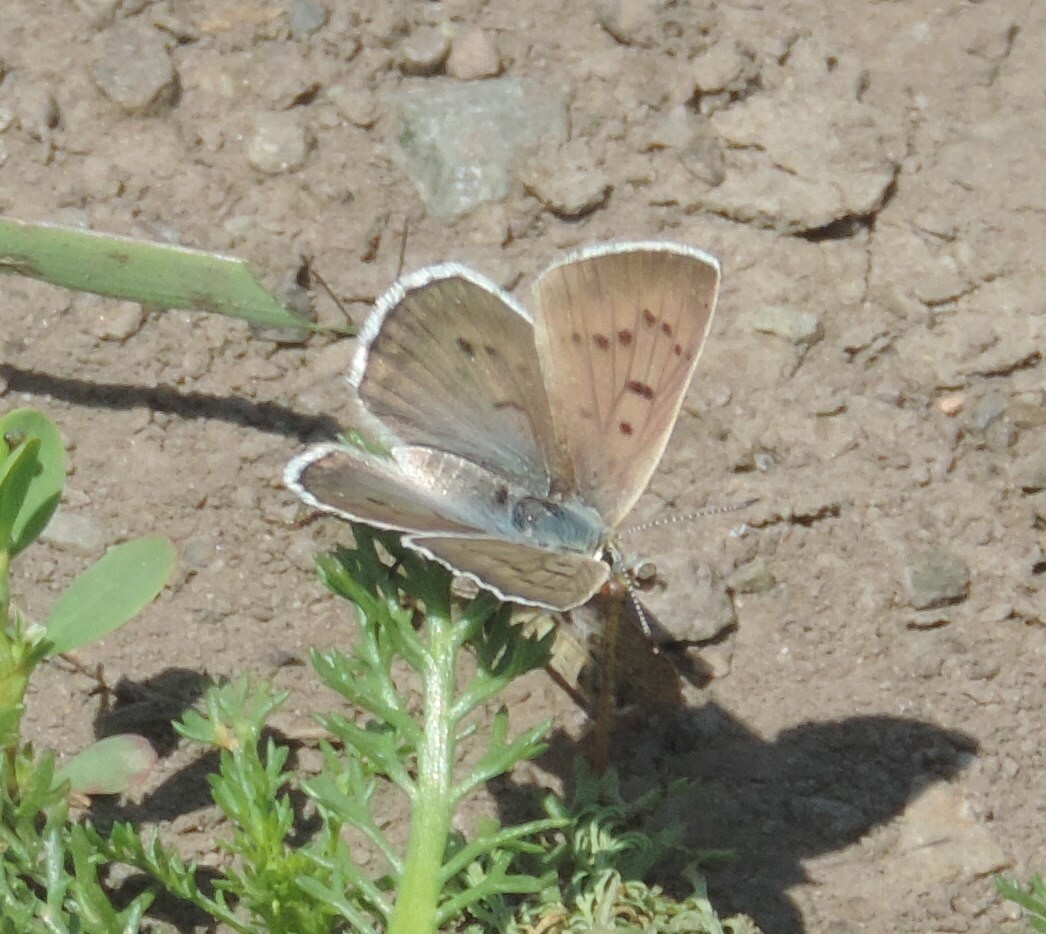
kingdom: Animalia
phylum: Arthropoda
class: Insecta
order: Lepidoptera
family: Lycaenidae
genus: Tharsalea
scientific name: Tharsalea heteronea
